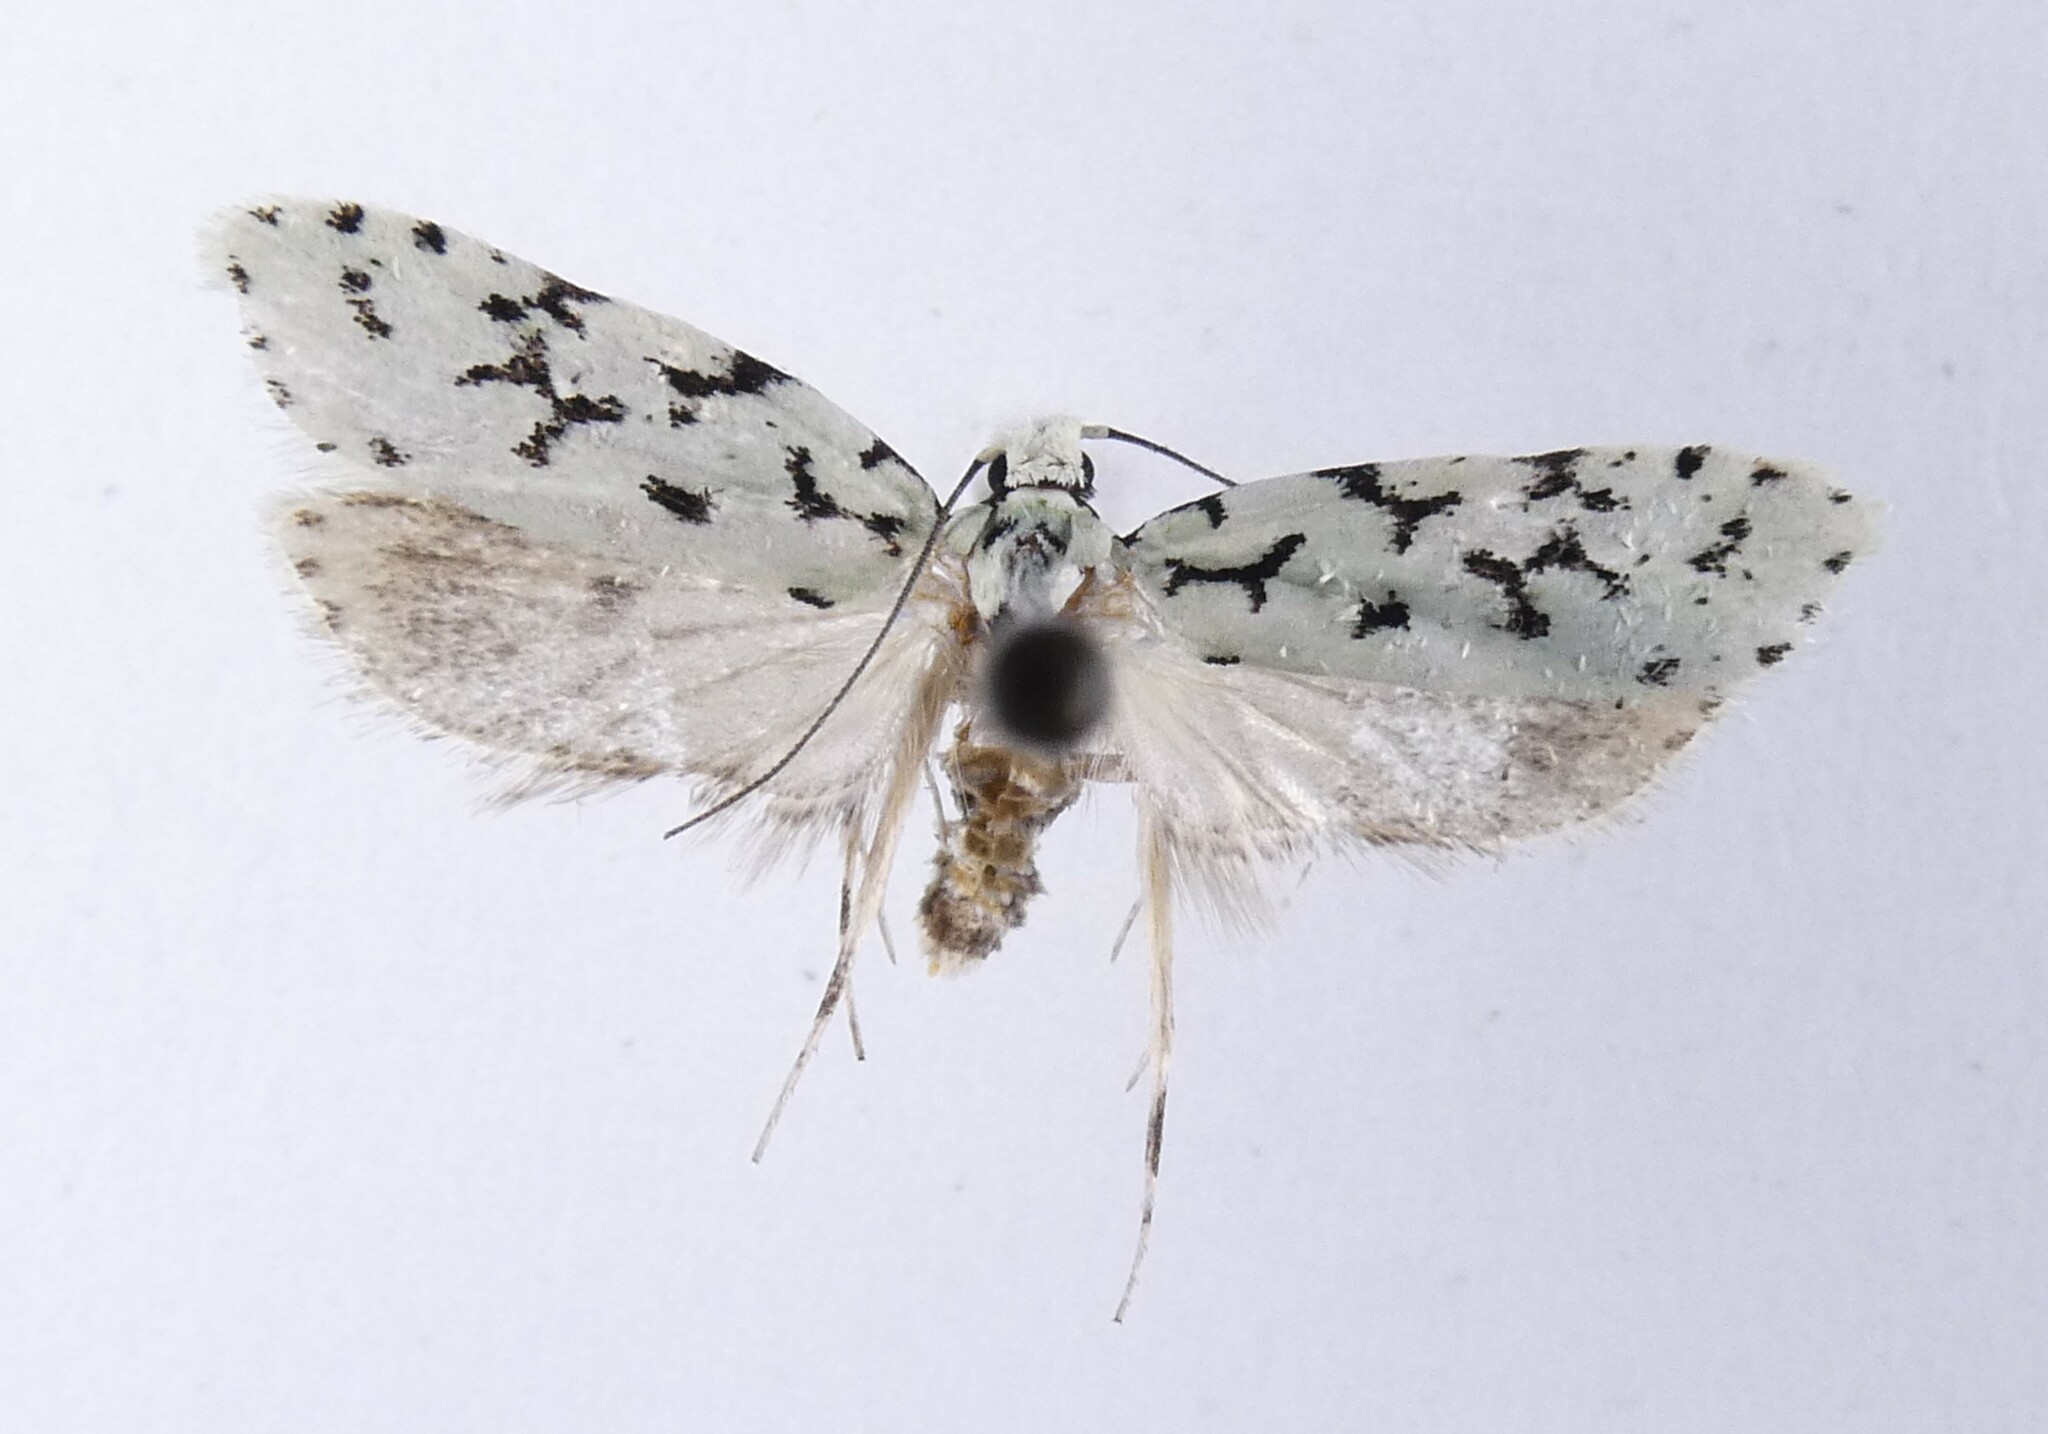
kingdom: Animalia
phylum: Arthropoda
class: Insecta
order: Lepidoptera
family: Oecophoridae
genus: Izatha
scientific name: Izatha huttoni
